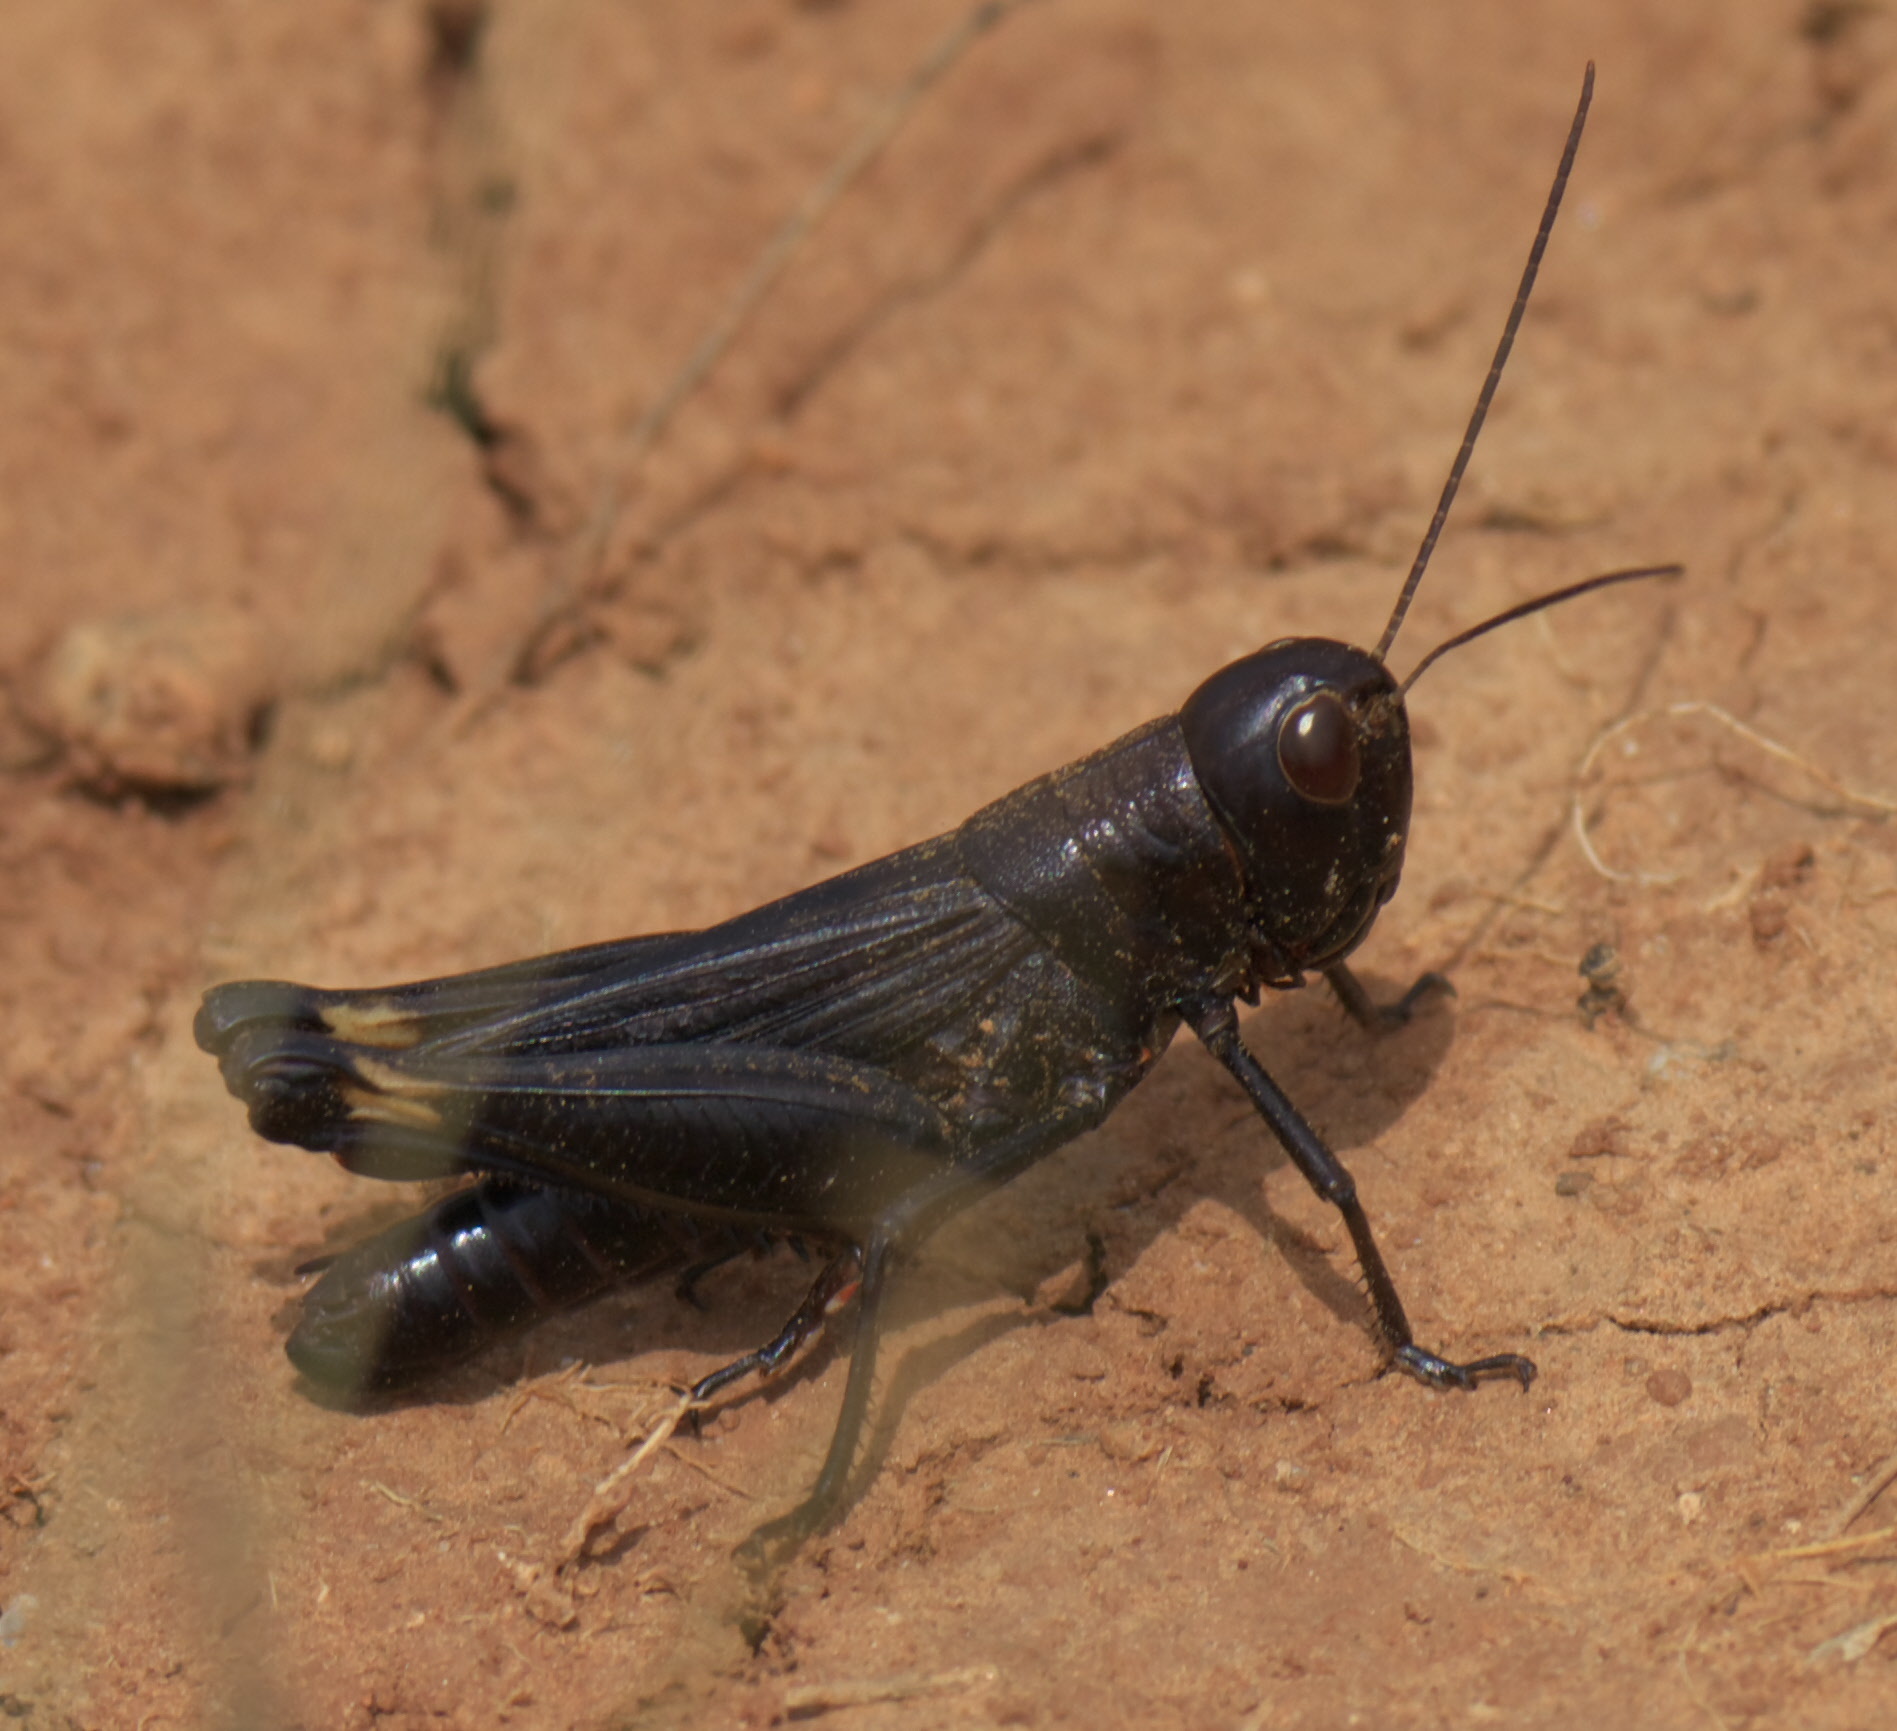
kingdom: Animalia
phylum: Arthropoda
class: Insecta
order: Orthoptera
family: Acrididae
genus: Boopedon
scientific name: Boopedon nubilum
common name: Ebony grasshopper
